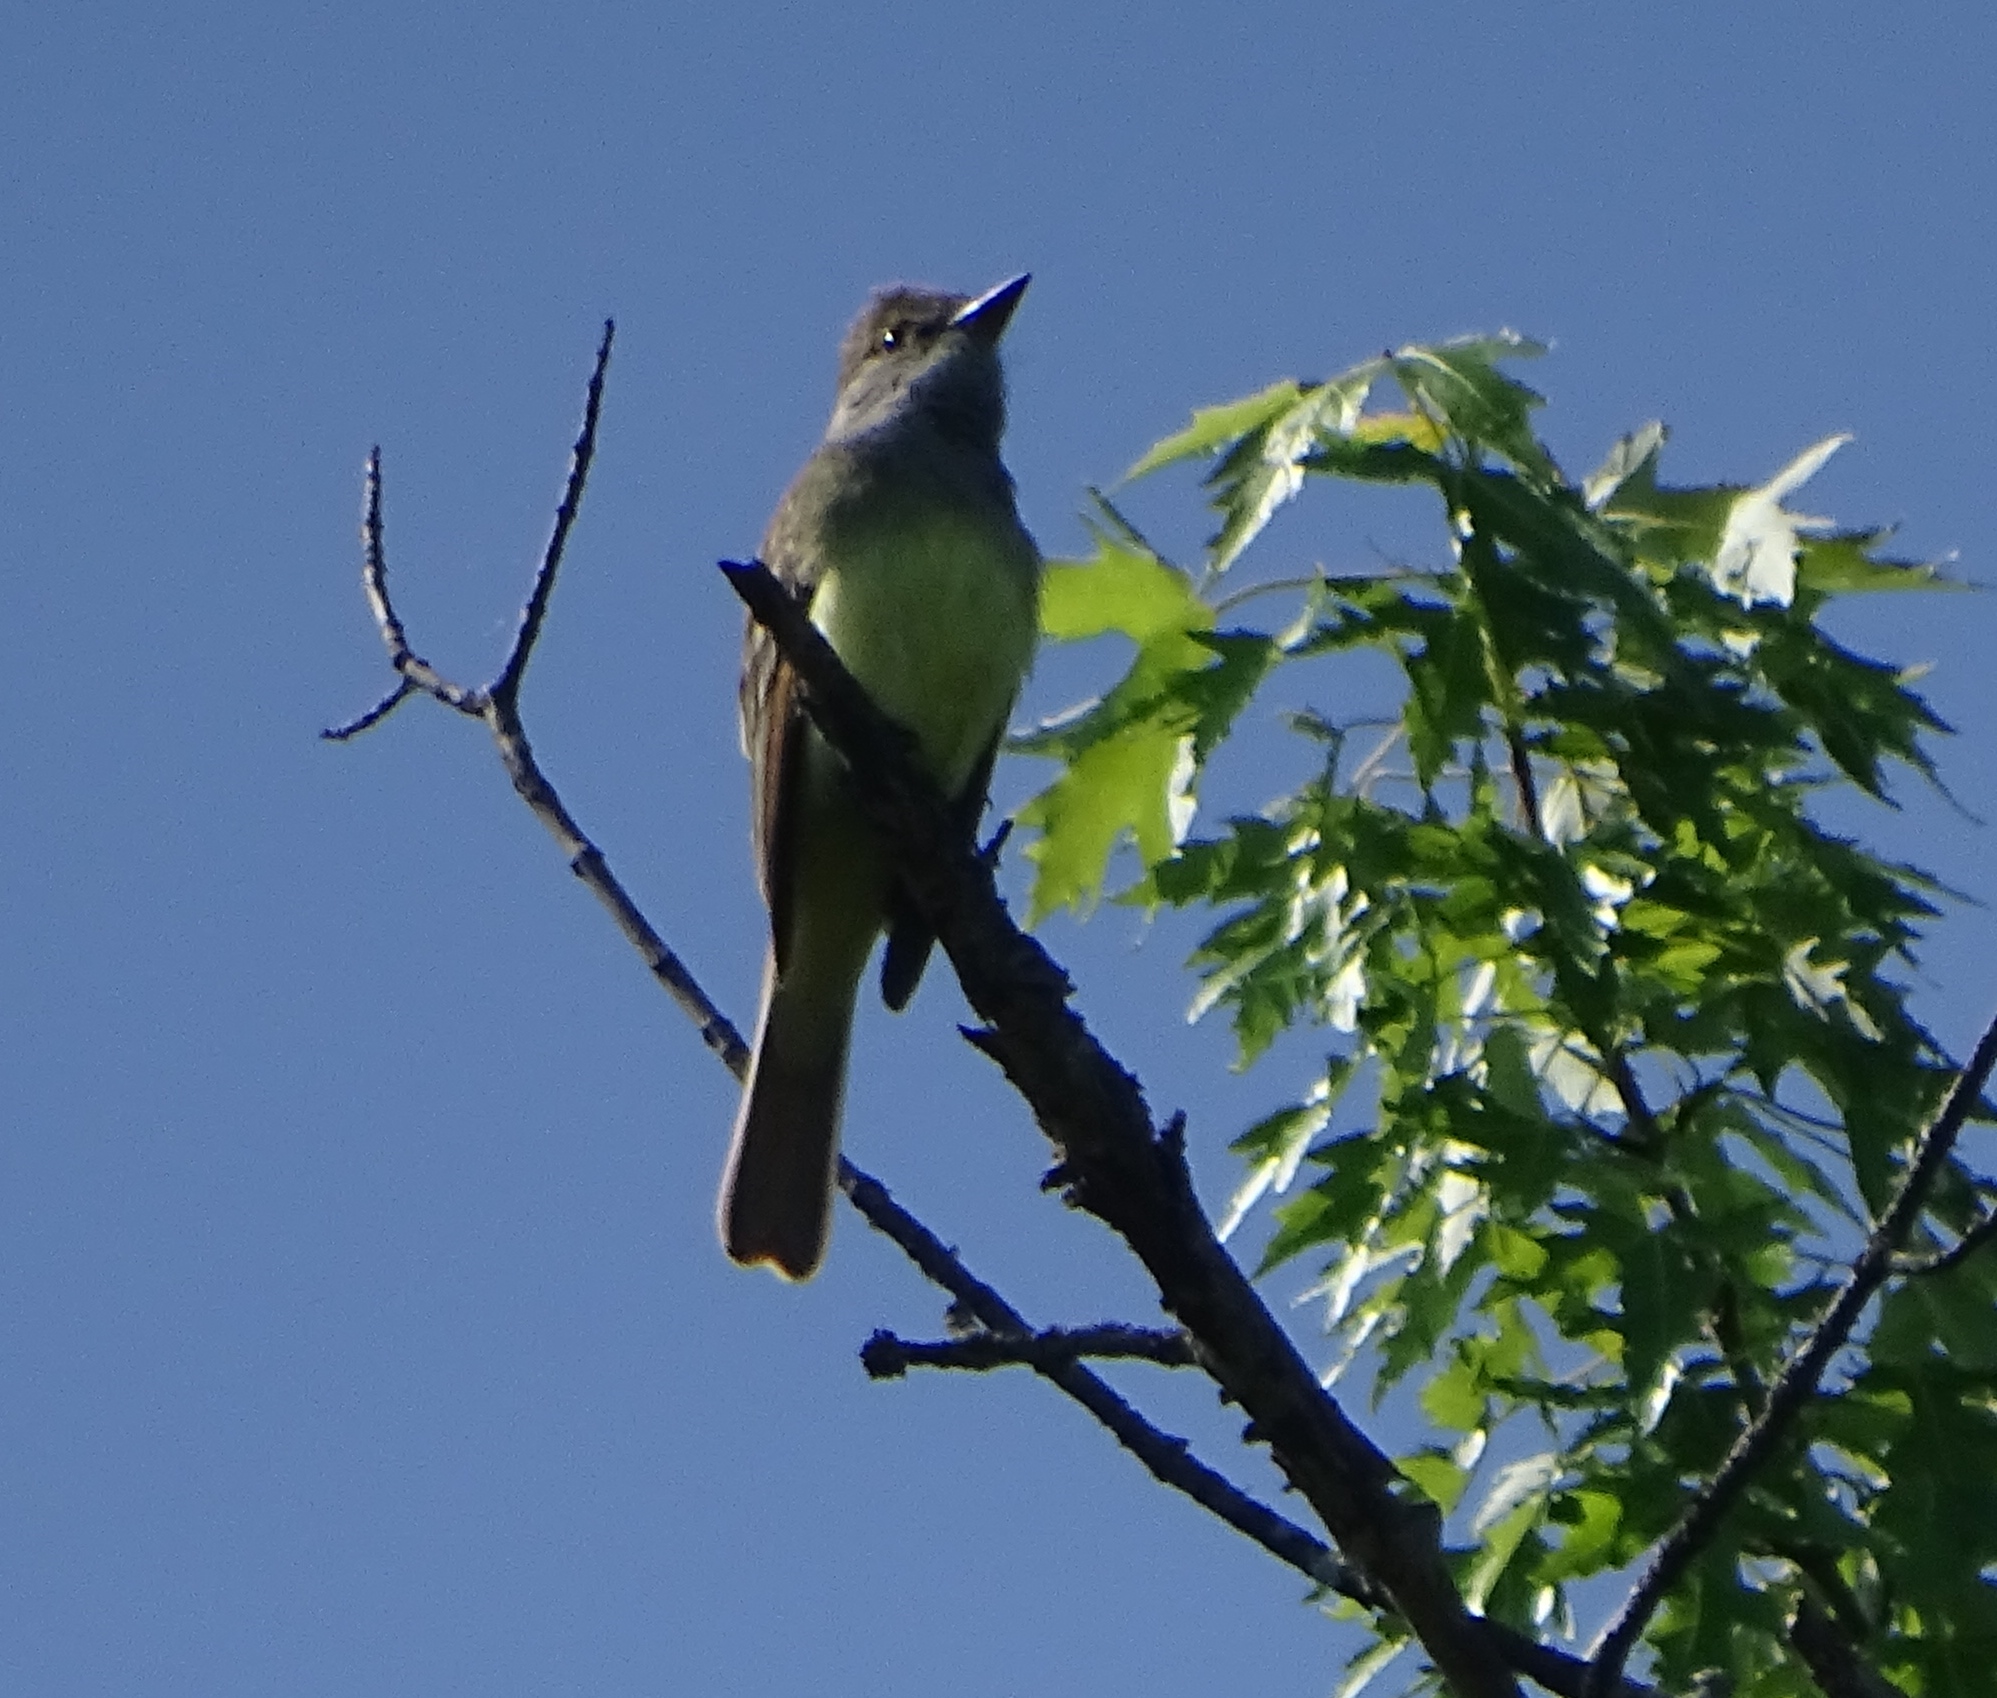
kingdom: Animalia
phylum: Chordata
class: Aves
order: Passeriformes
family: Tyrannidae
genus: Myiarchus
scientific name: Myiarchus crinitus
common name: Great crested flycatcher
